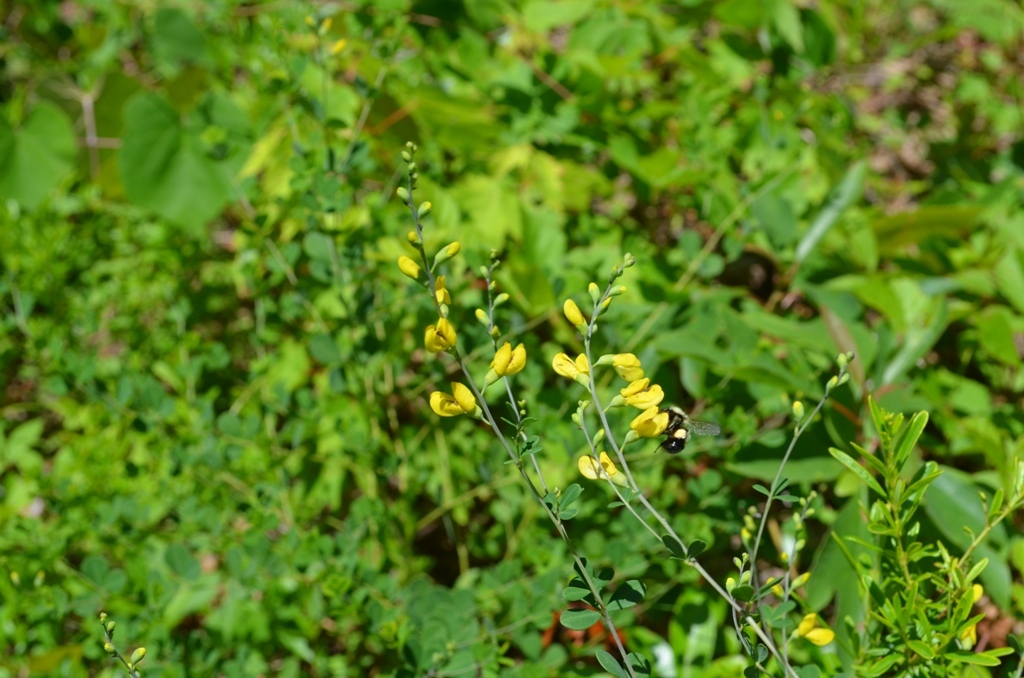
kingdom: Plantae
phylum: Tracheophyta
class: Magnoliopsida
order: Fabales
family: Fabaceae
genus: Baptisia
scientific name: Baptisia tinctoria
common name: Wild indigo
